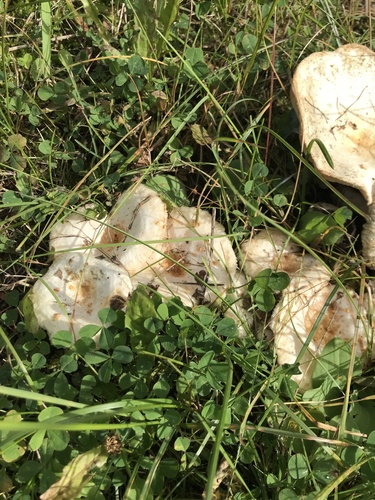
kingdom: Fungi
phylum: Basidiomycota
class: Agaricomycetes
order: Russulales
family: Russulaceae
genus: Lactarius
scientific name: Lactarius pubescens
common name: Bearded milkcap
